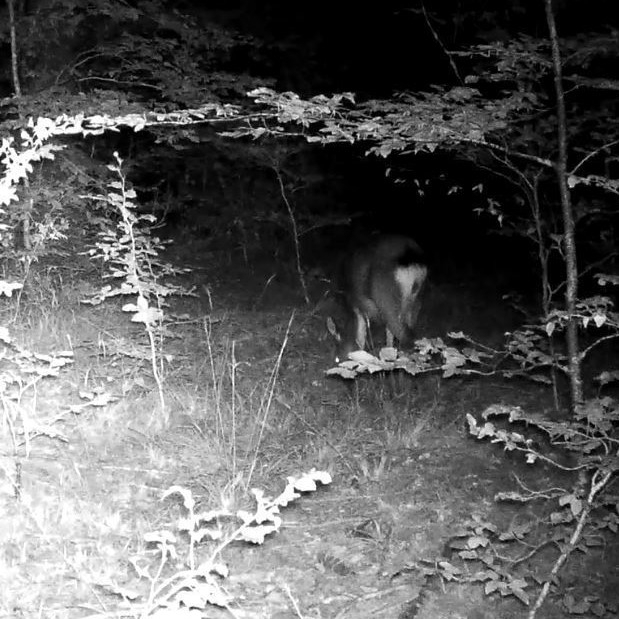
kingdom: Animalia
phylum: Chordata
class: Mammalia
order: Artiodactyla
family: Cervidae
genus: Dama
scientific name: Dama dama
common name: Fallow deer
